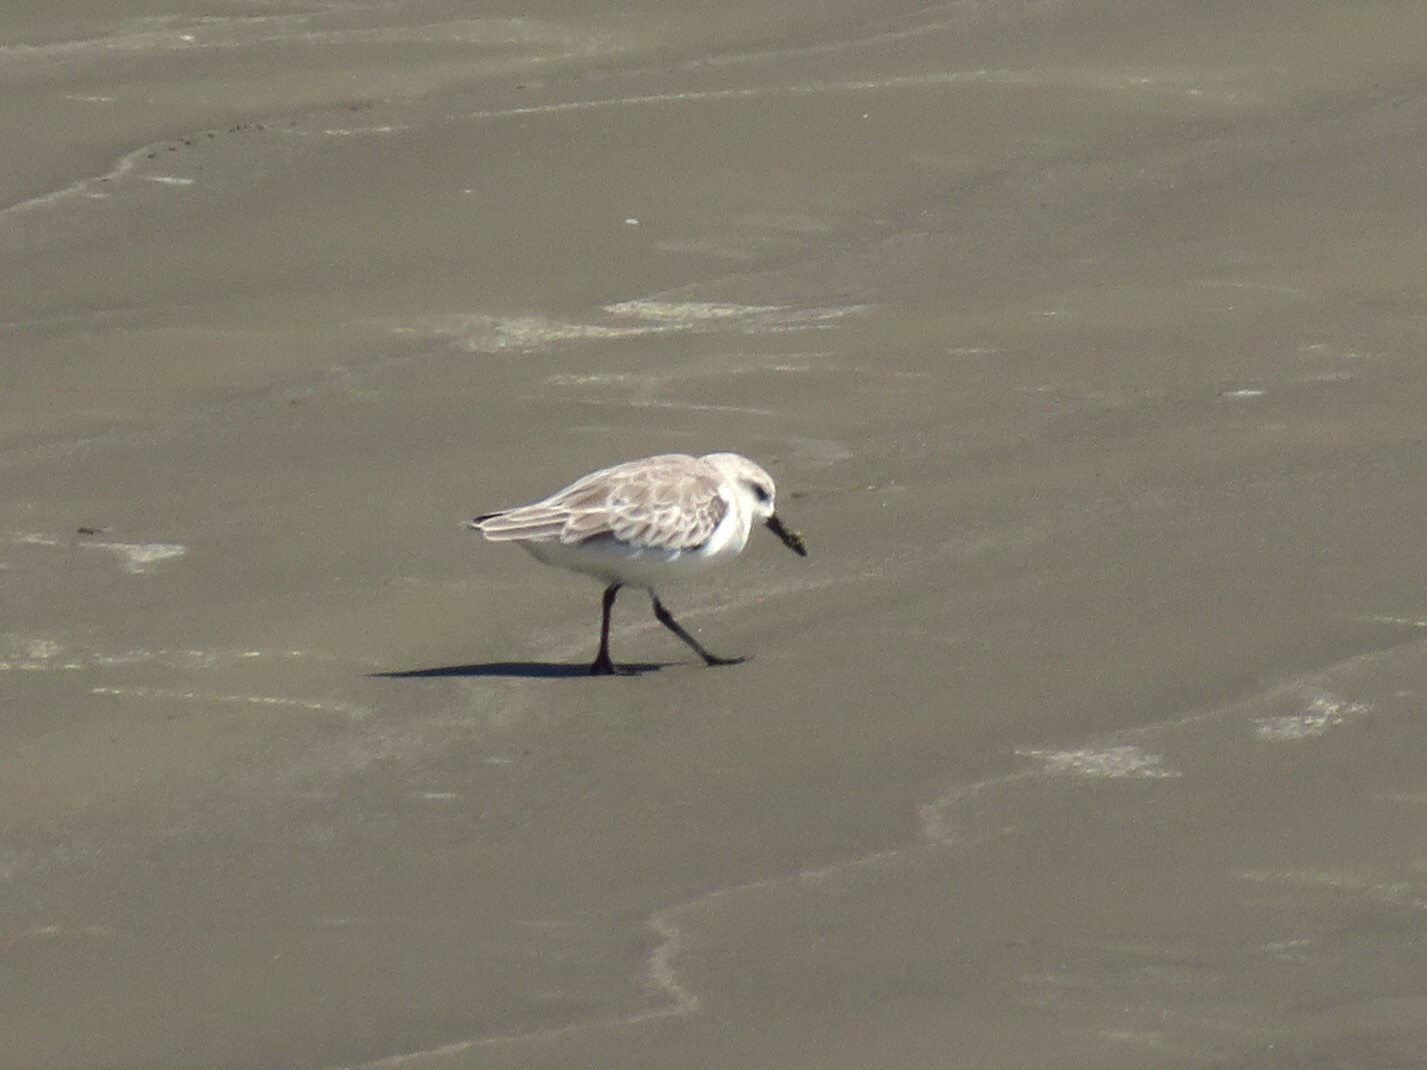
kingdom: Animalia
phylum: Chordata
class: Aves
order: Charadriiformes
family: Scolopacidae
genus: Calidris
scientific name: Calidris alba
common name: Sanderling
